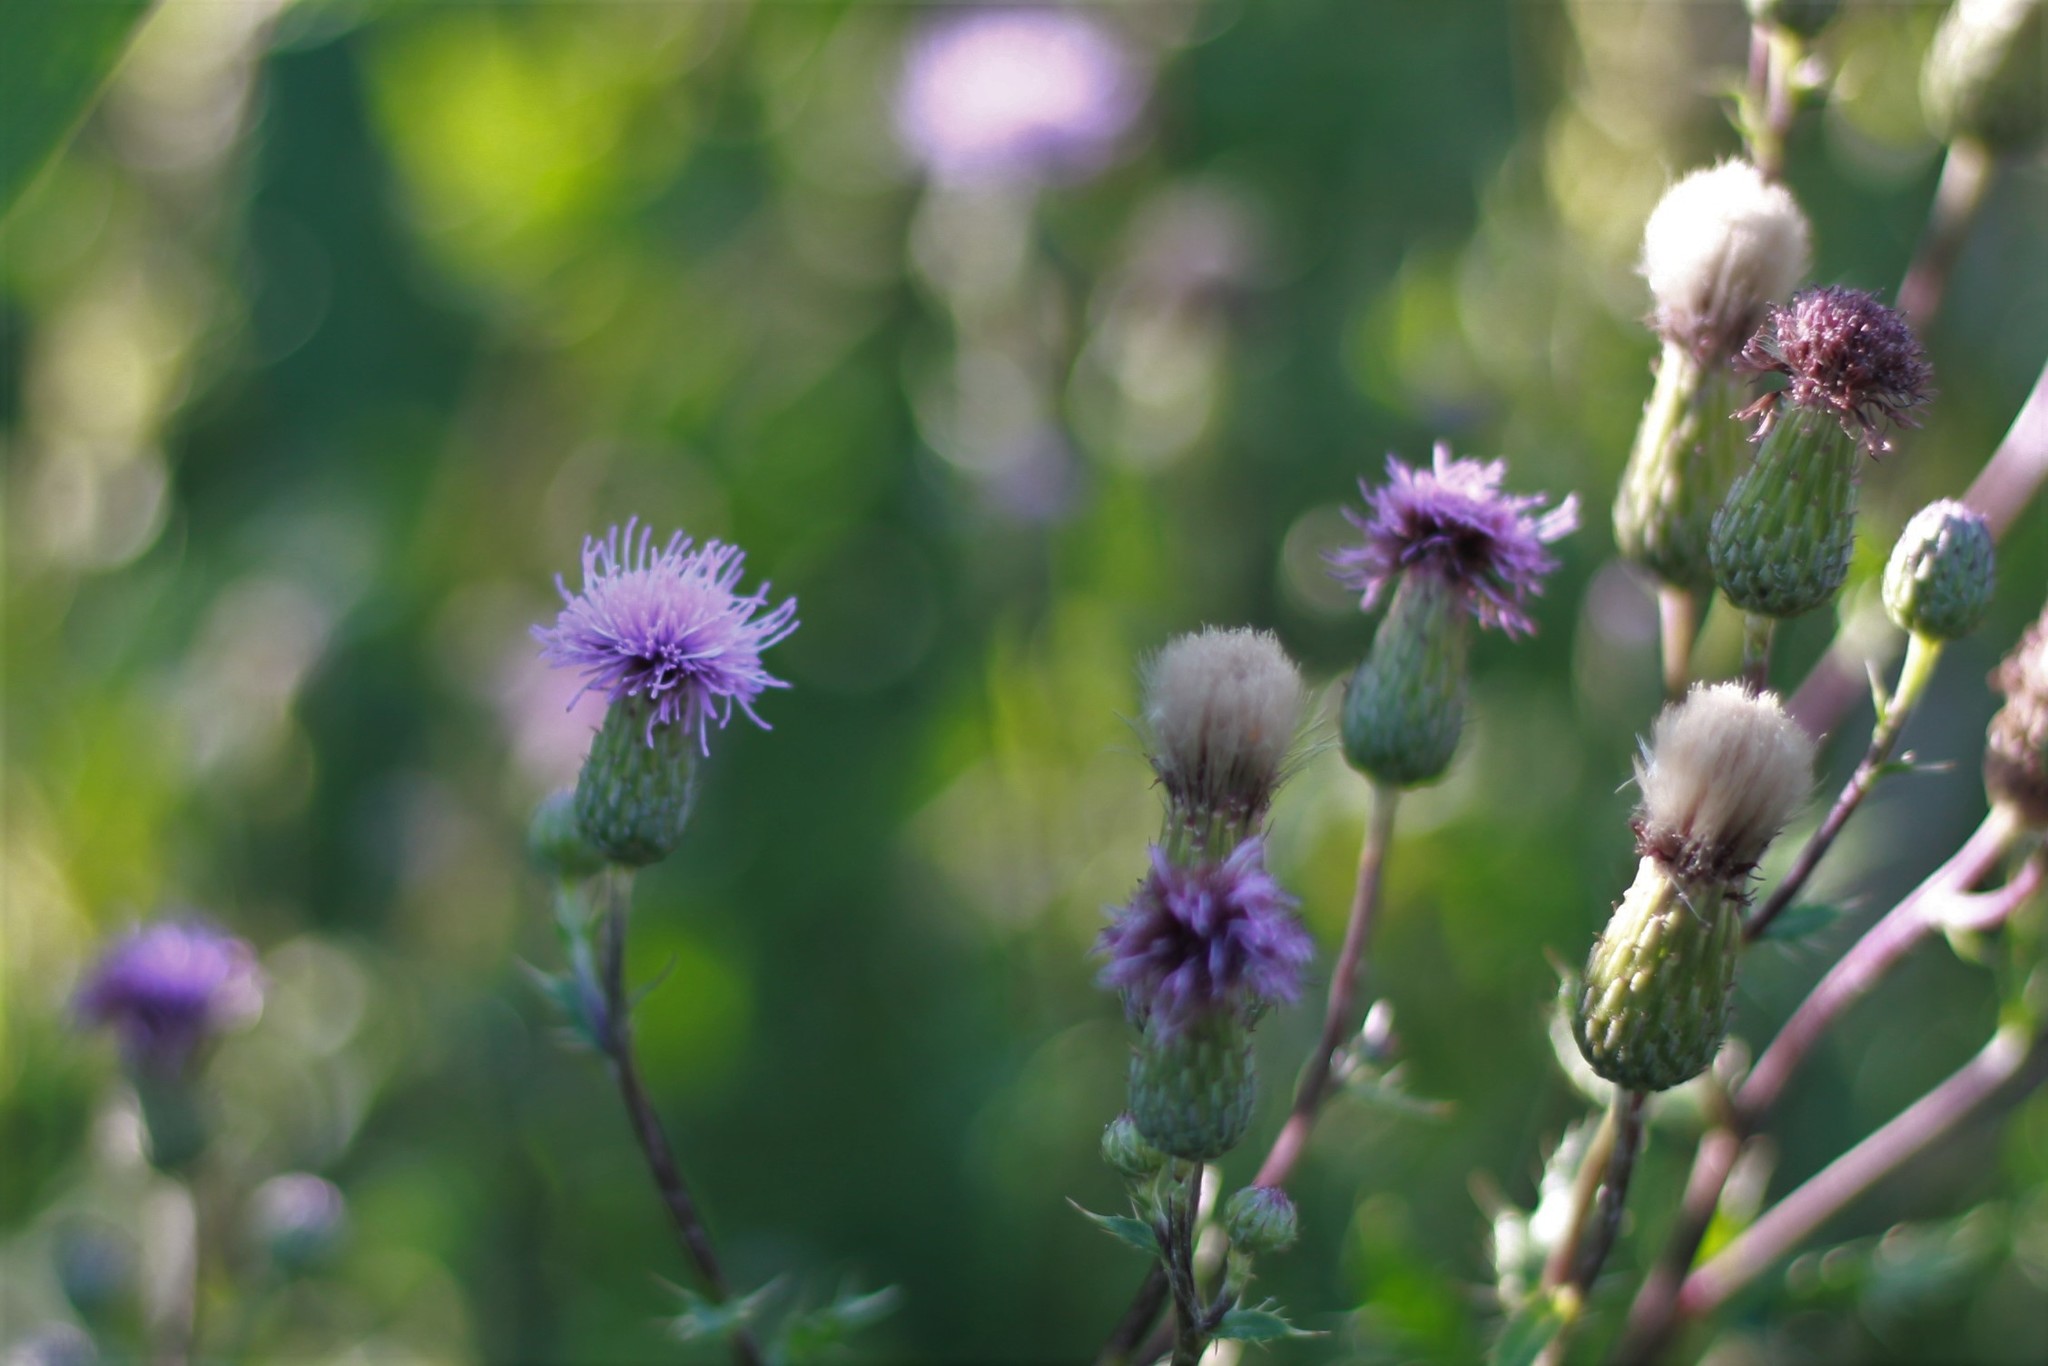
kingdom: Plantae
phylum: Tracheophyta
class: Magnoliopsida
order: Asterales
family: Asteraceae
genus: Cirsium
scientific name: Cirsium arvense
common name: Creeping thistle
